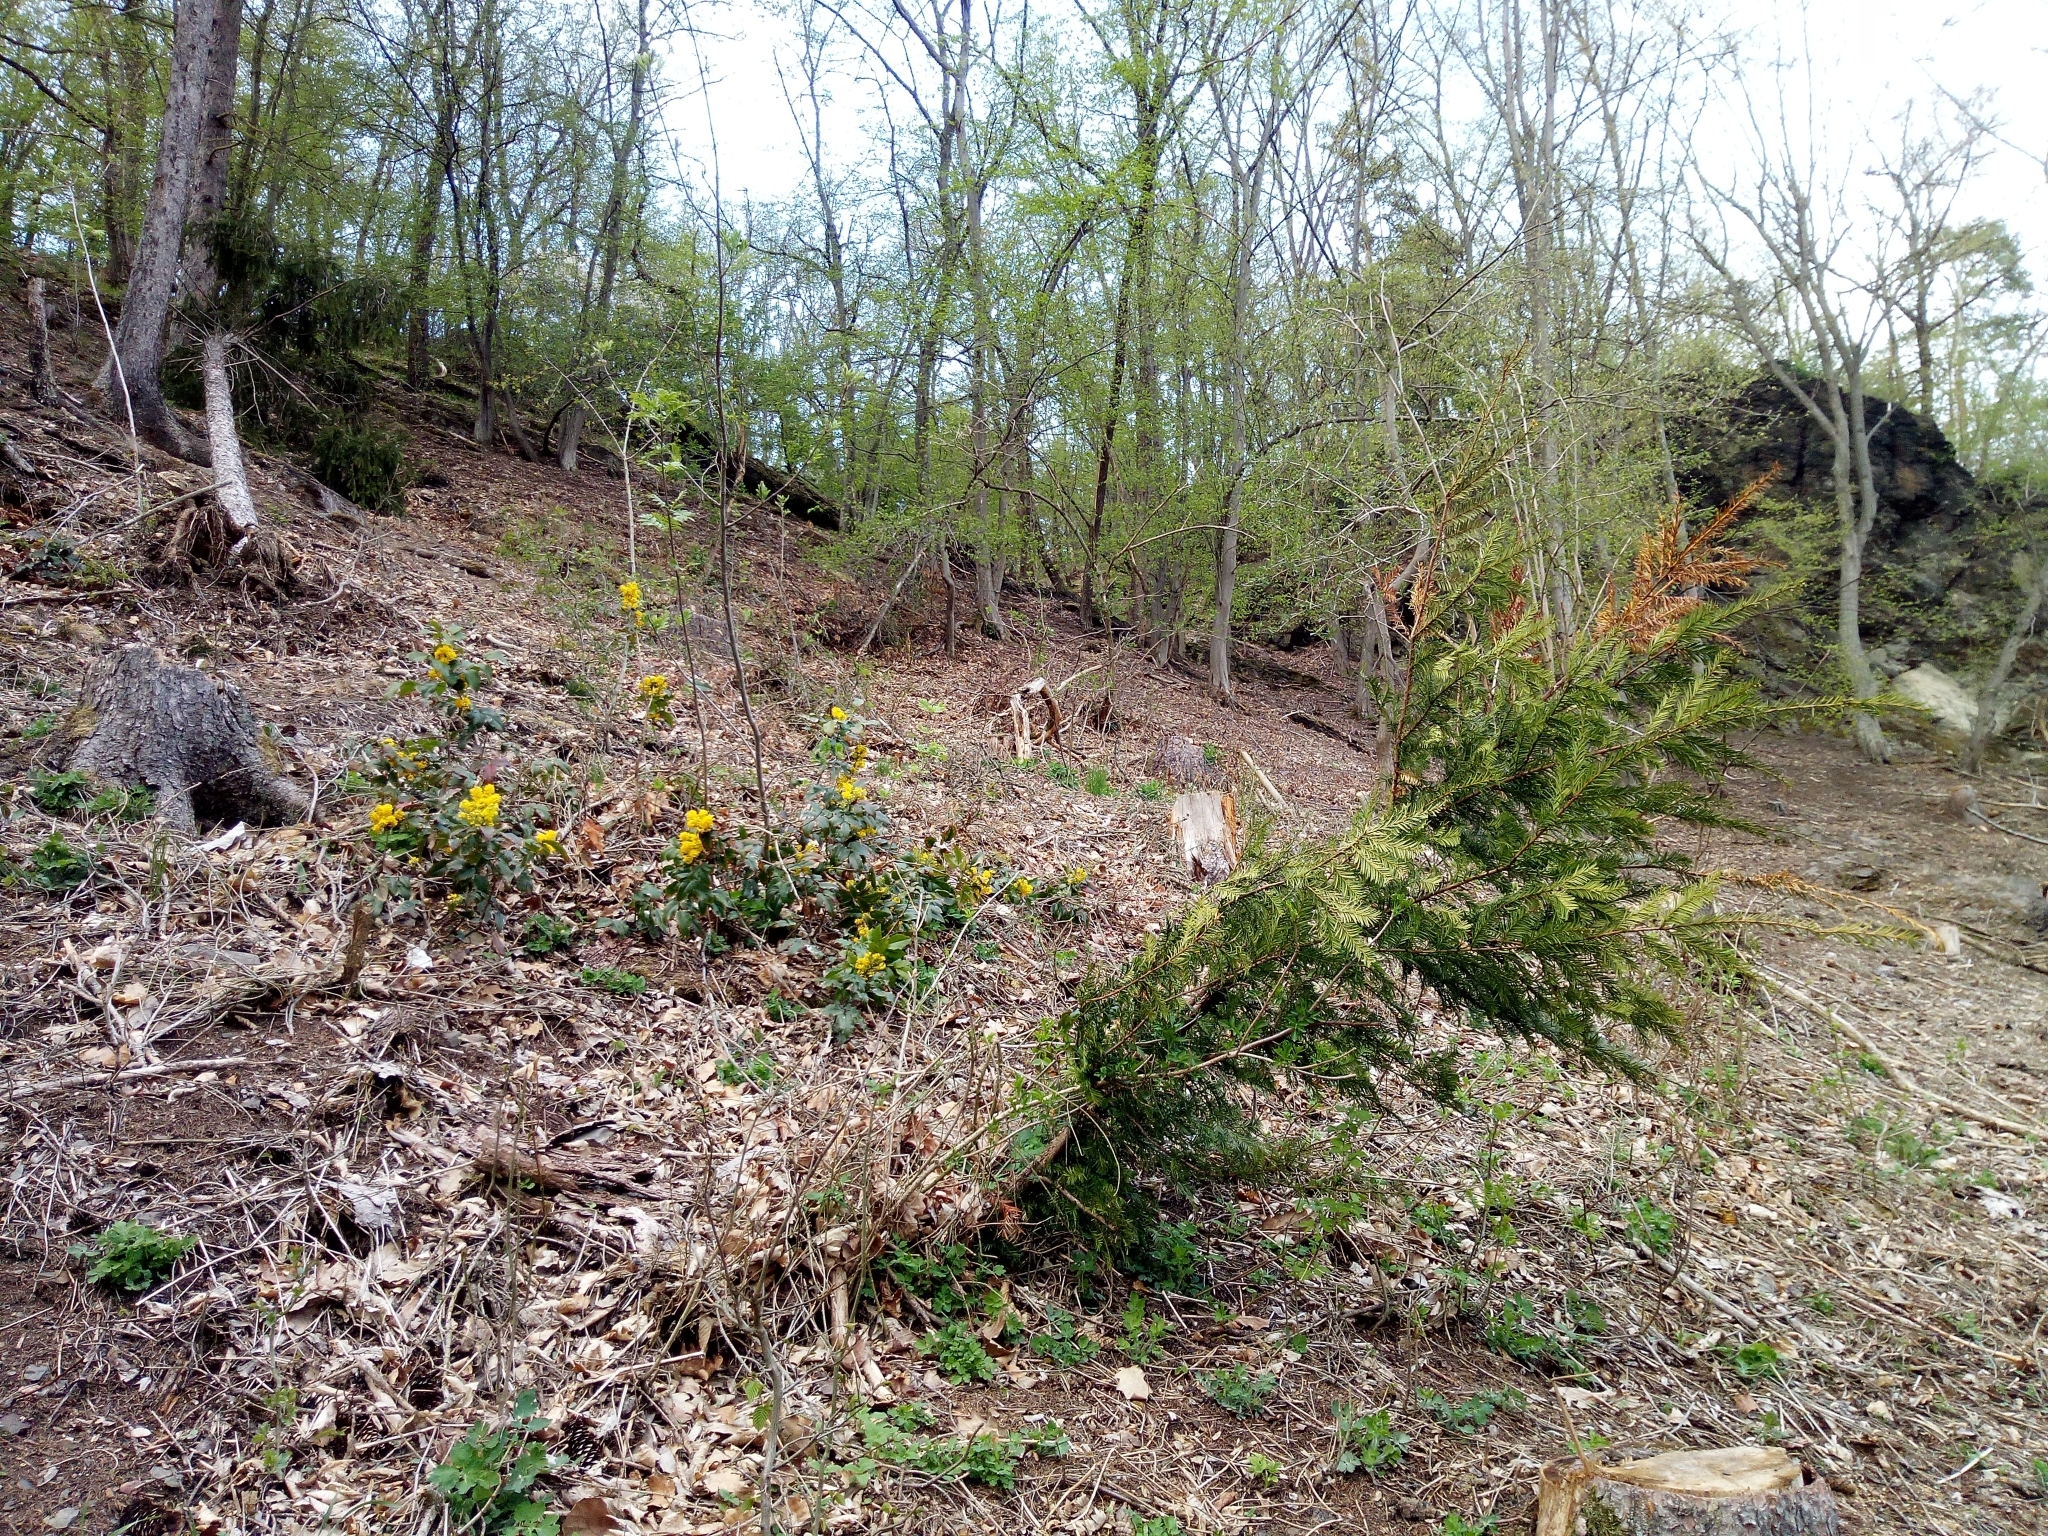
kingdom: Plantae
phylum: Tracheophyta
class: Magnoliopsida
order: Ranunculales
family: Berberidaceae
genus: Mahonia
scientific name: Mahonia aquifolium
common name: Oregon-grape
